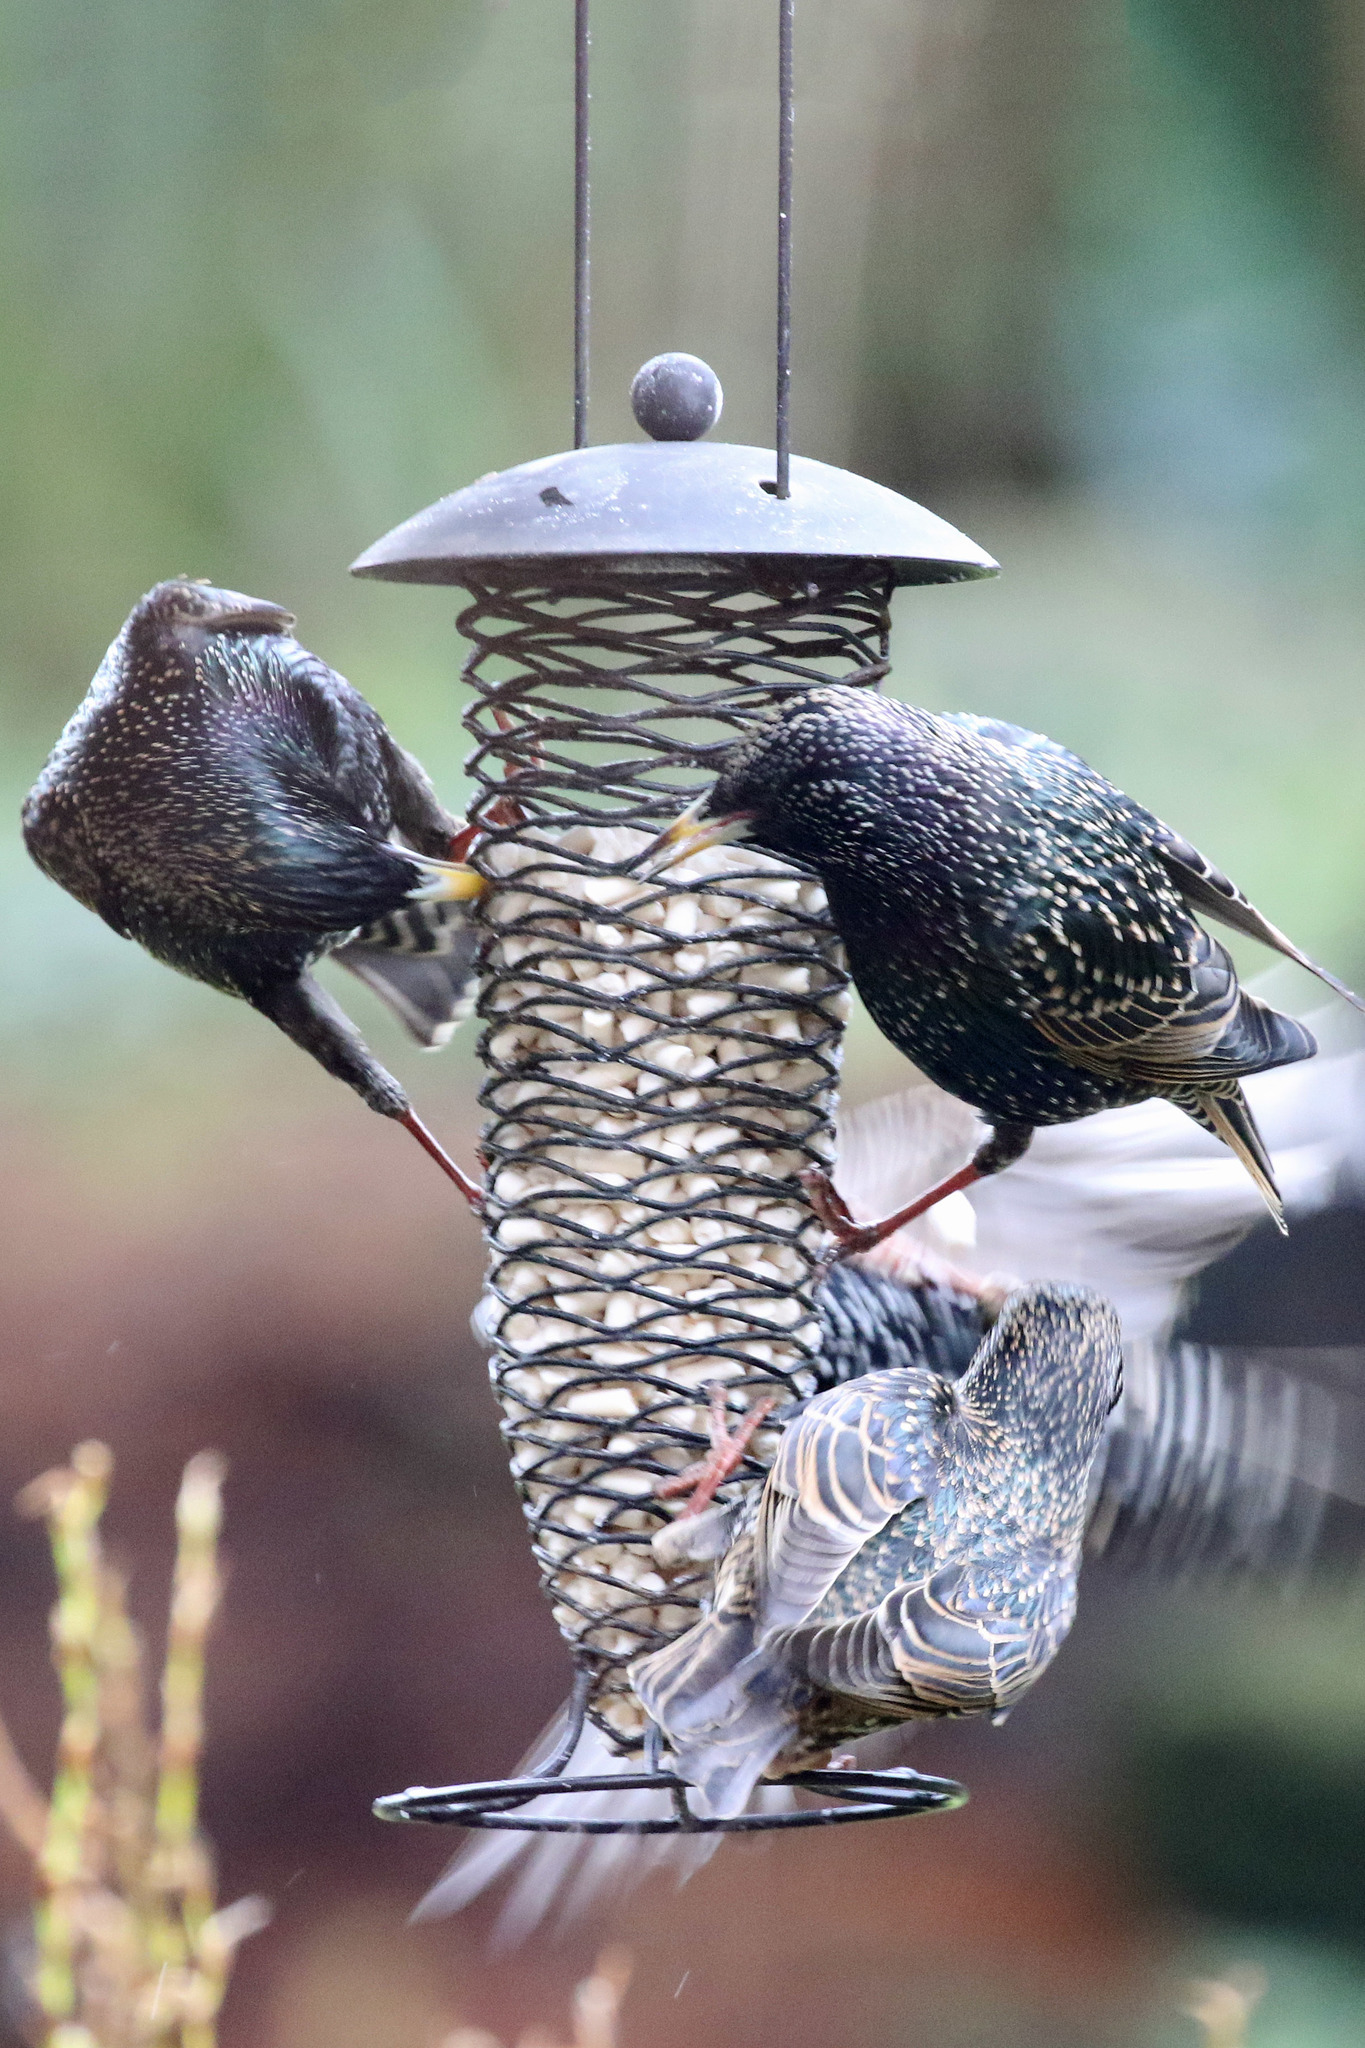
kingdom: Animalia
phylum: Chordata
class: Aves
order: Passeriformes
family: Sturnidae
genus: Sturnus
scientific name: Sturnus vulgaris
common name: Common starling
